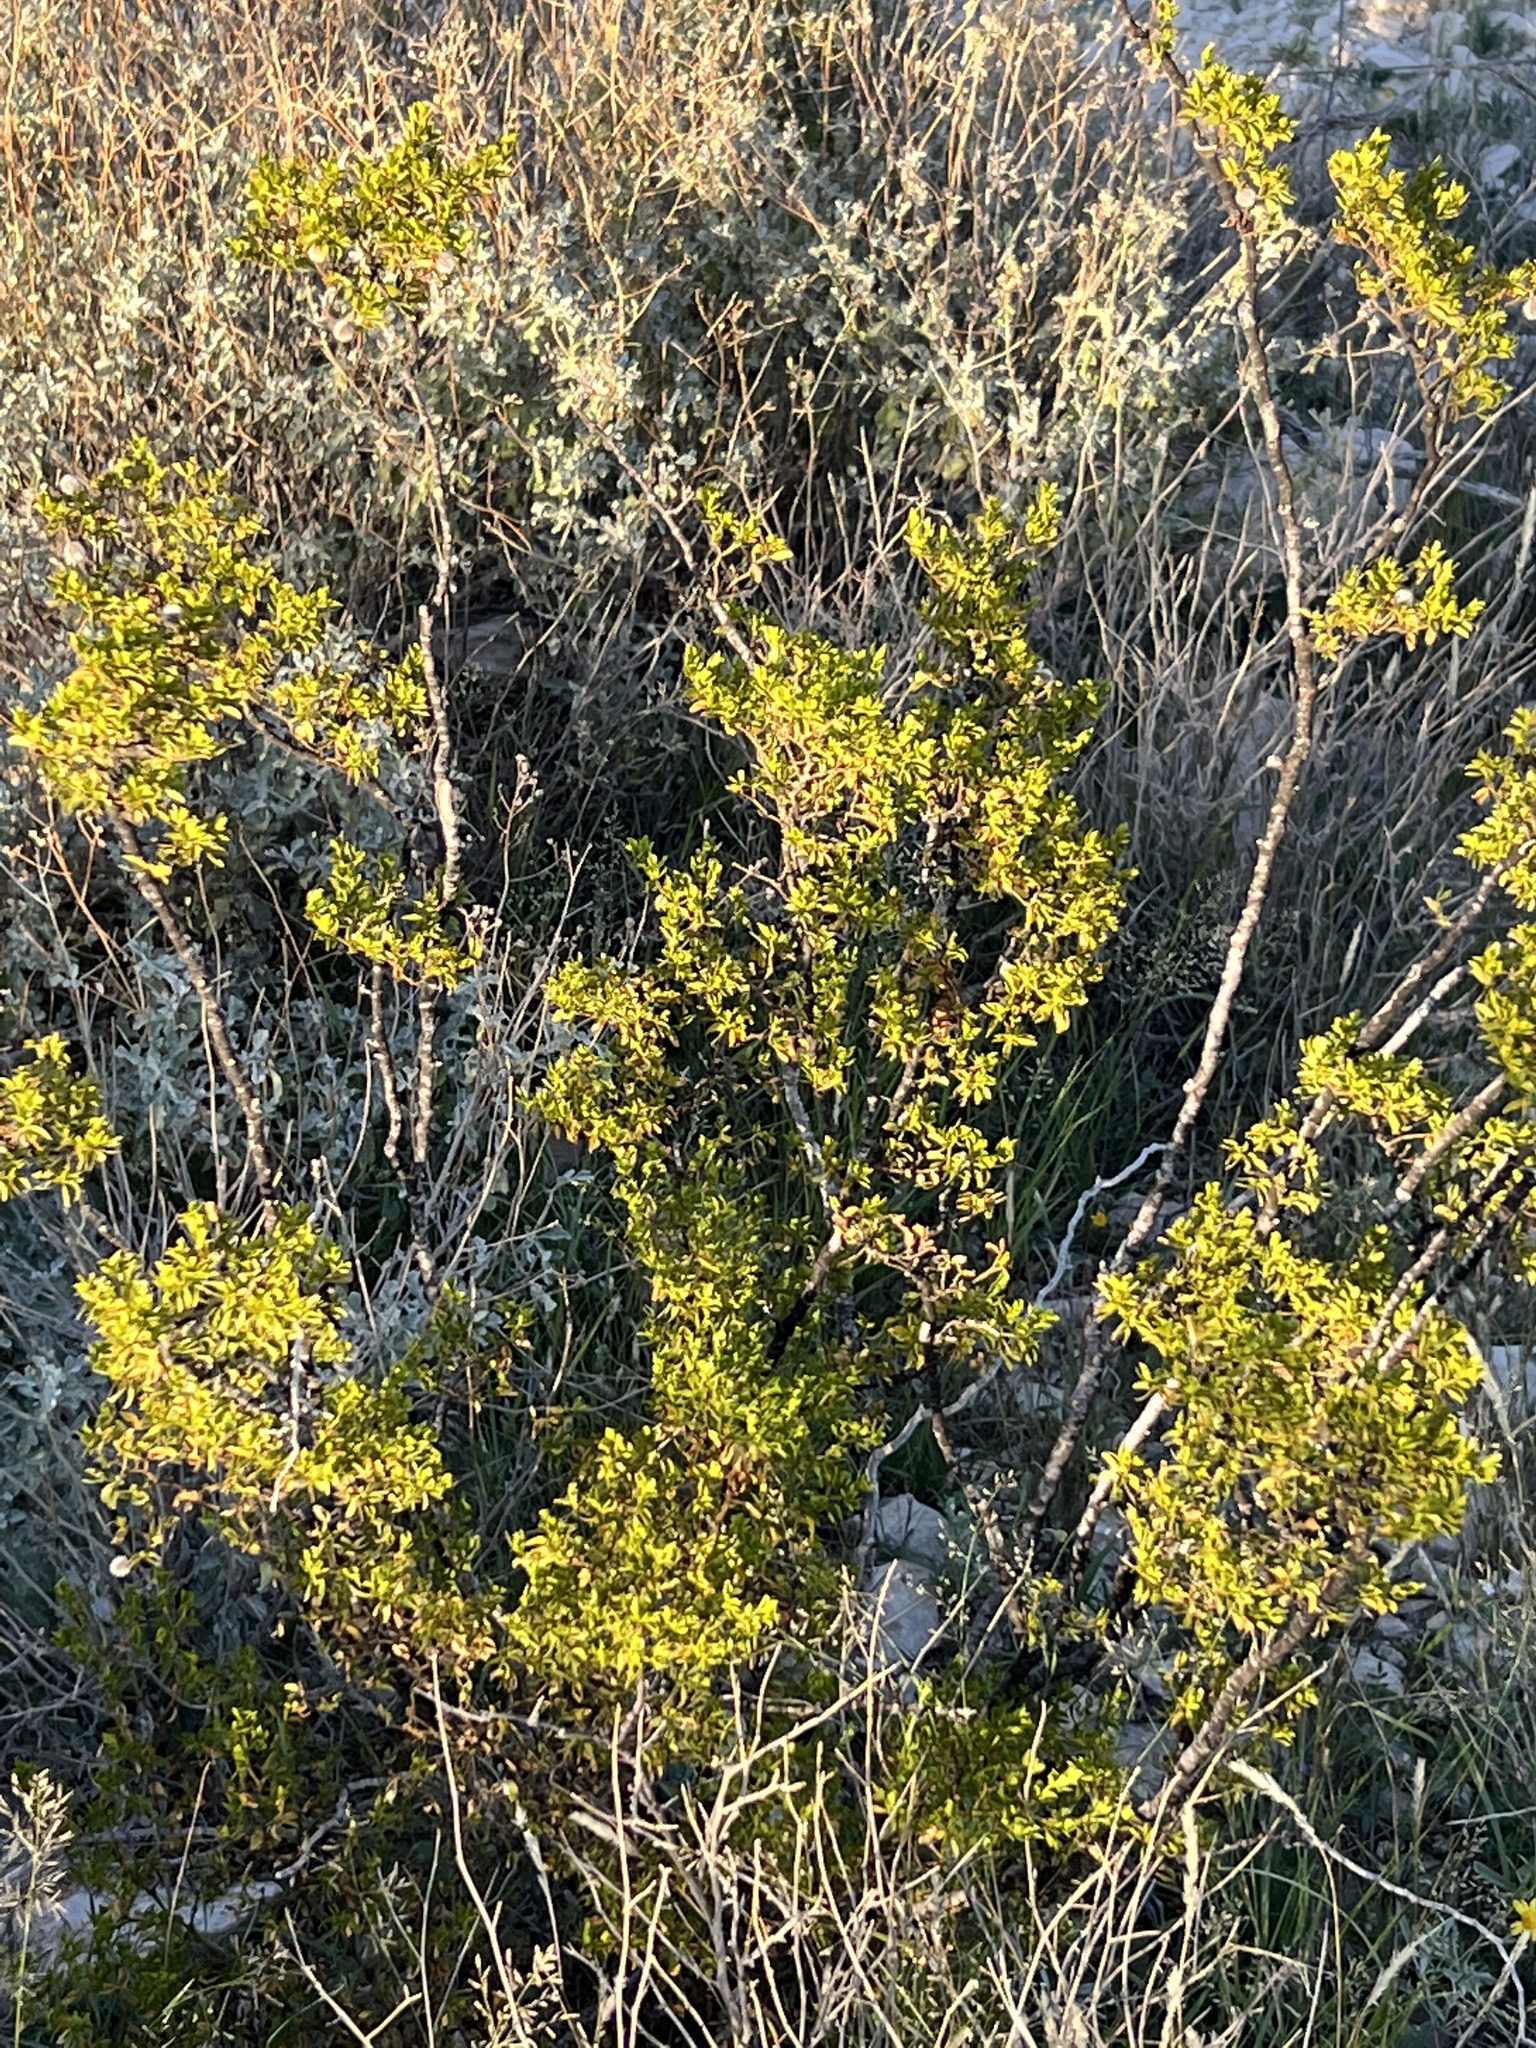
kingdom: Plantae
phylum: Tracheophyta
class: Magnoliopsida
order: Zygophyllales
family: Zygophyllaceae
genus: Larrea
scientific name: Larrea tridentata
